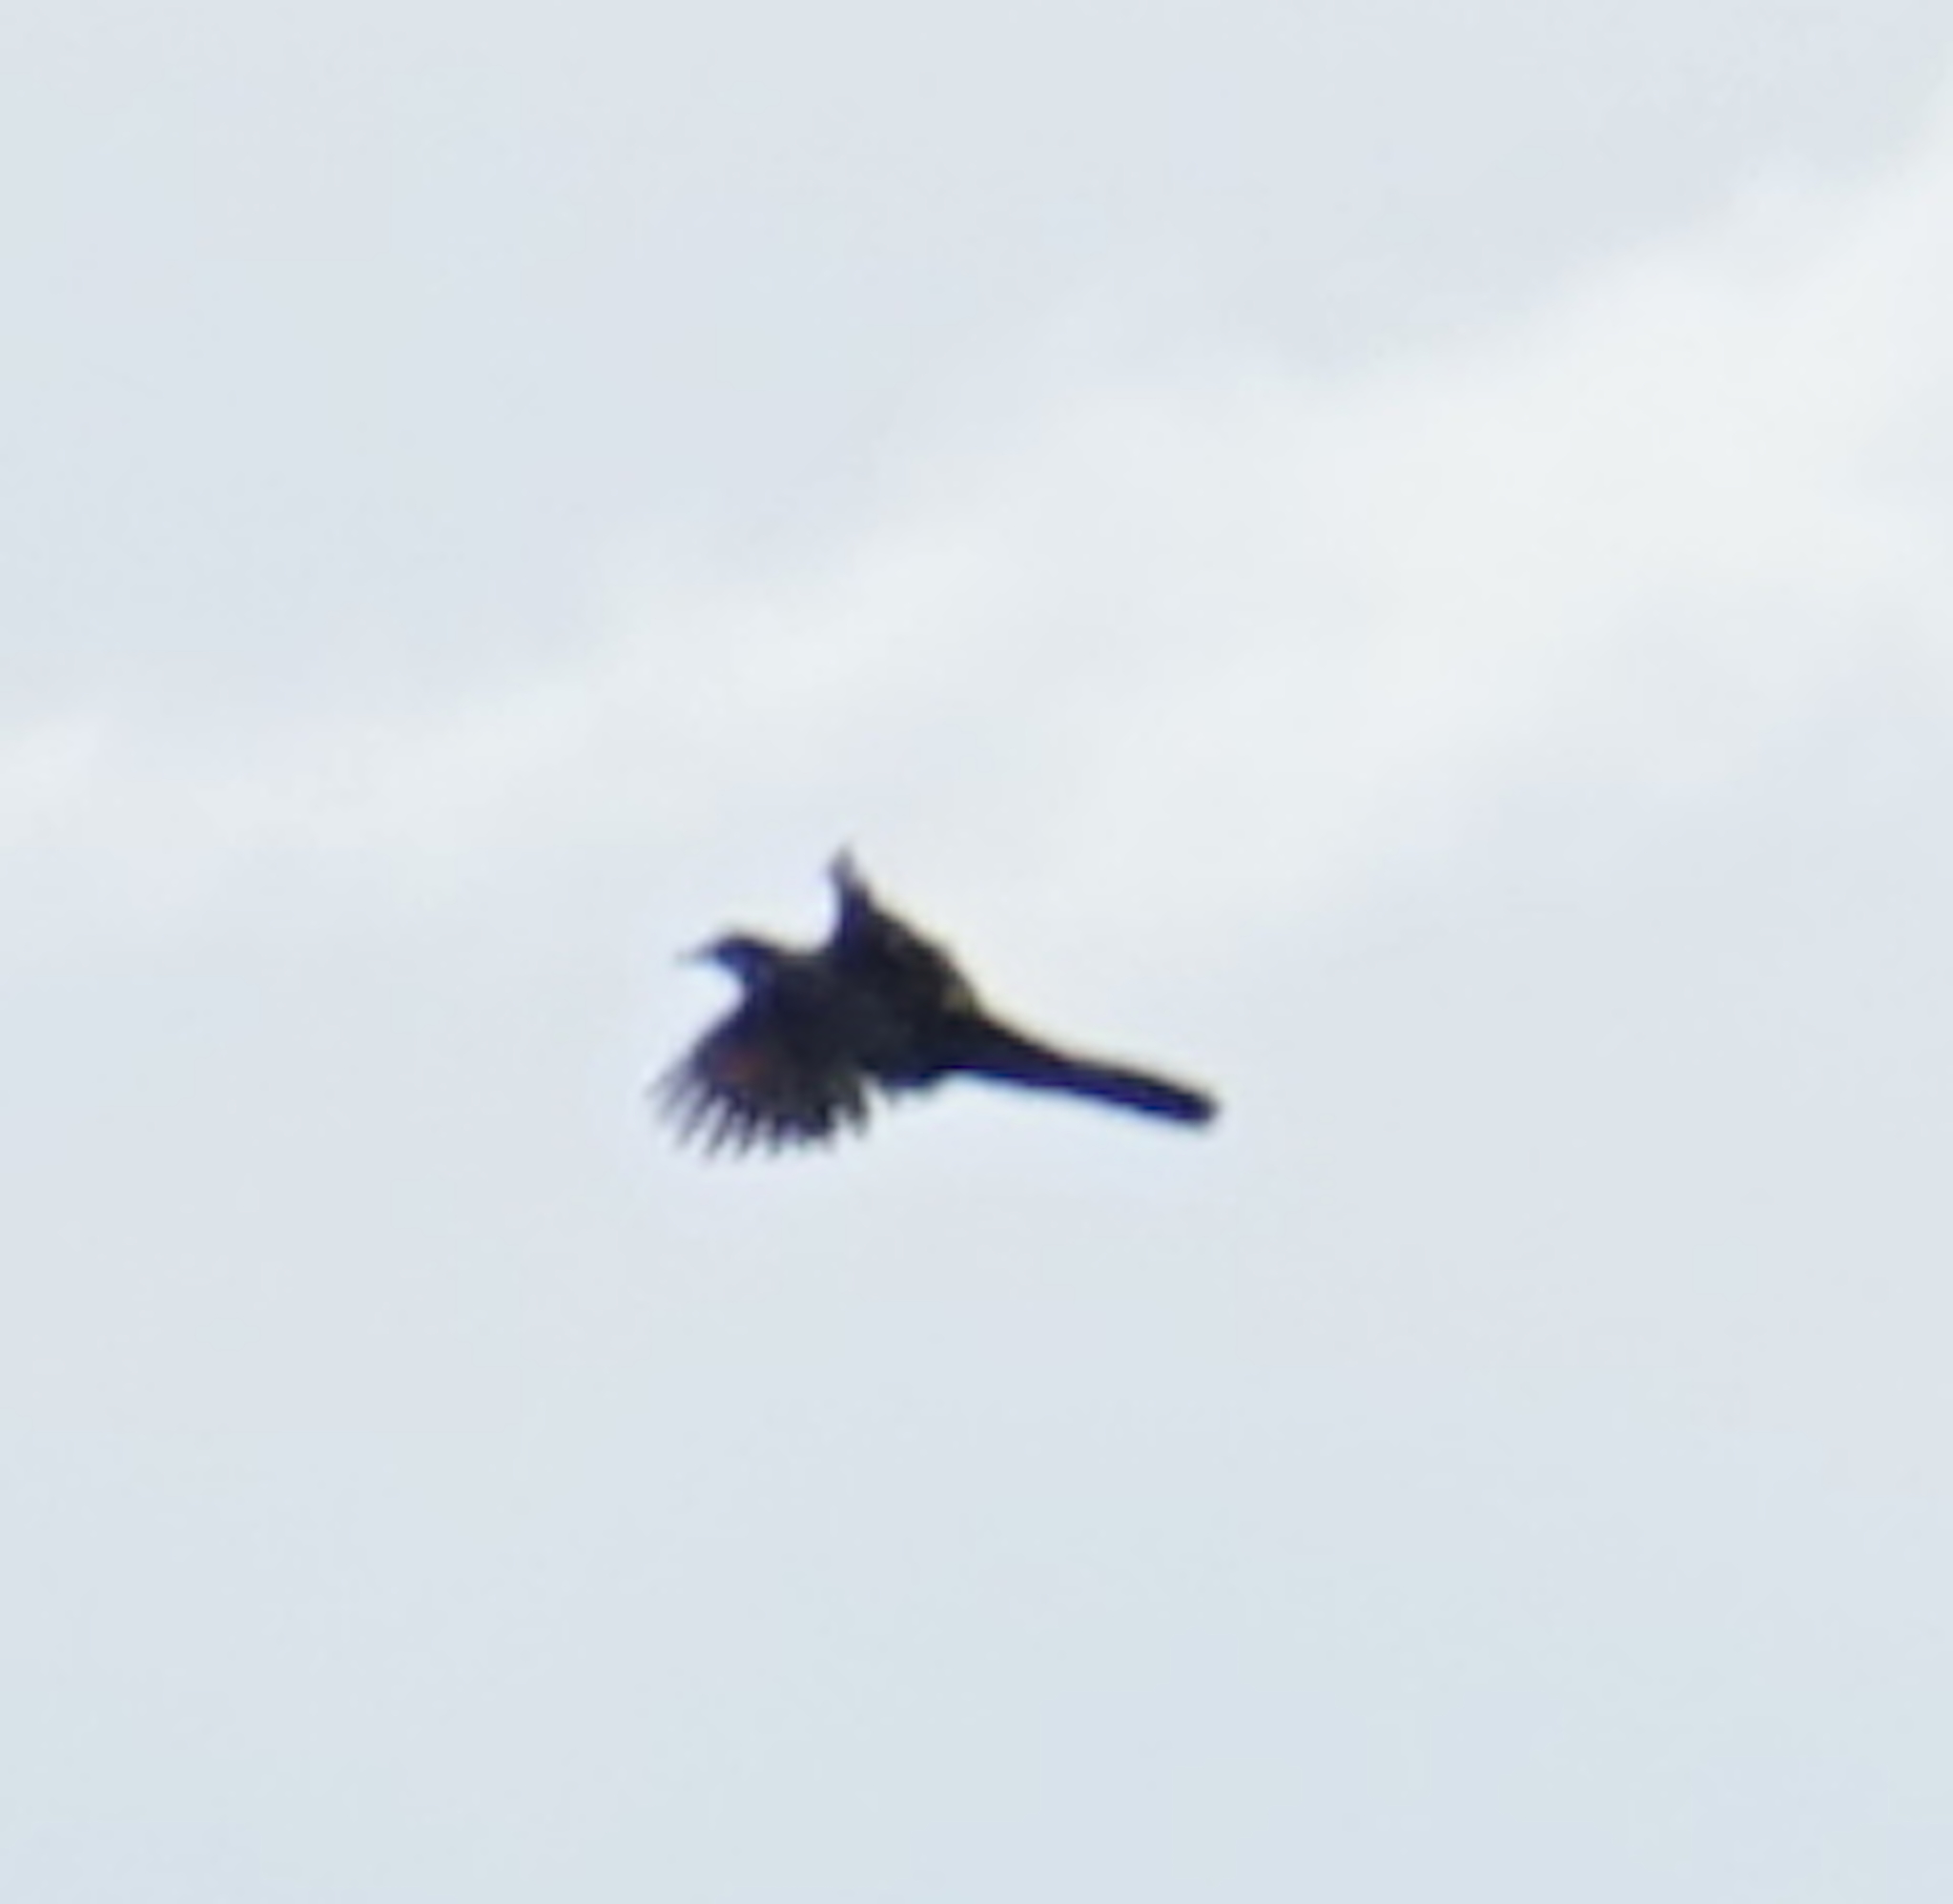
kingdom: Animalia
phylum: Chordata
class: Aves
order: Cuculiformes
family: Cuculidae
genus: Phaenicophaeus
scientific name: Phaenicophaeus
